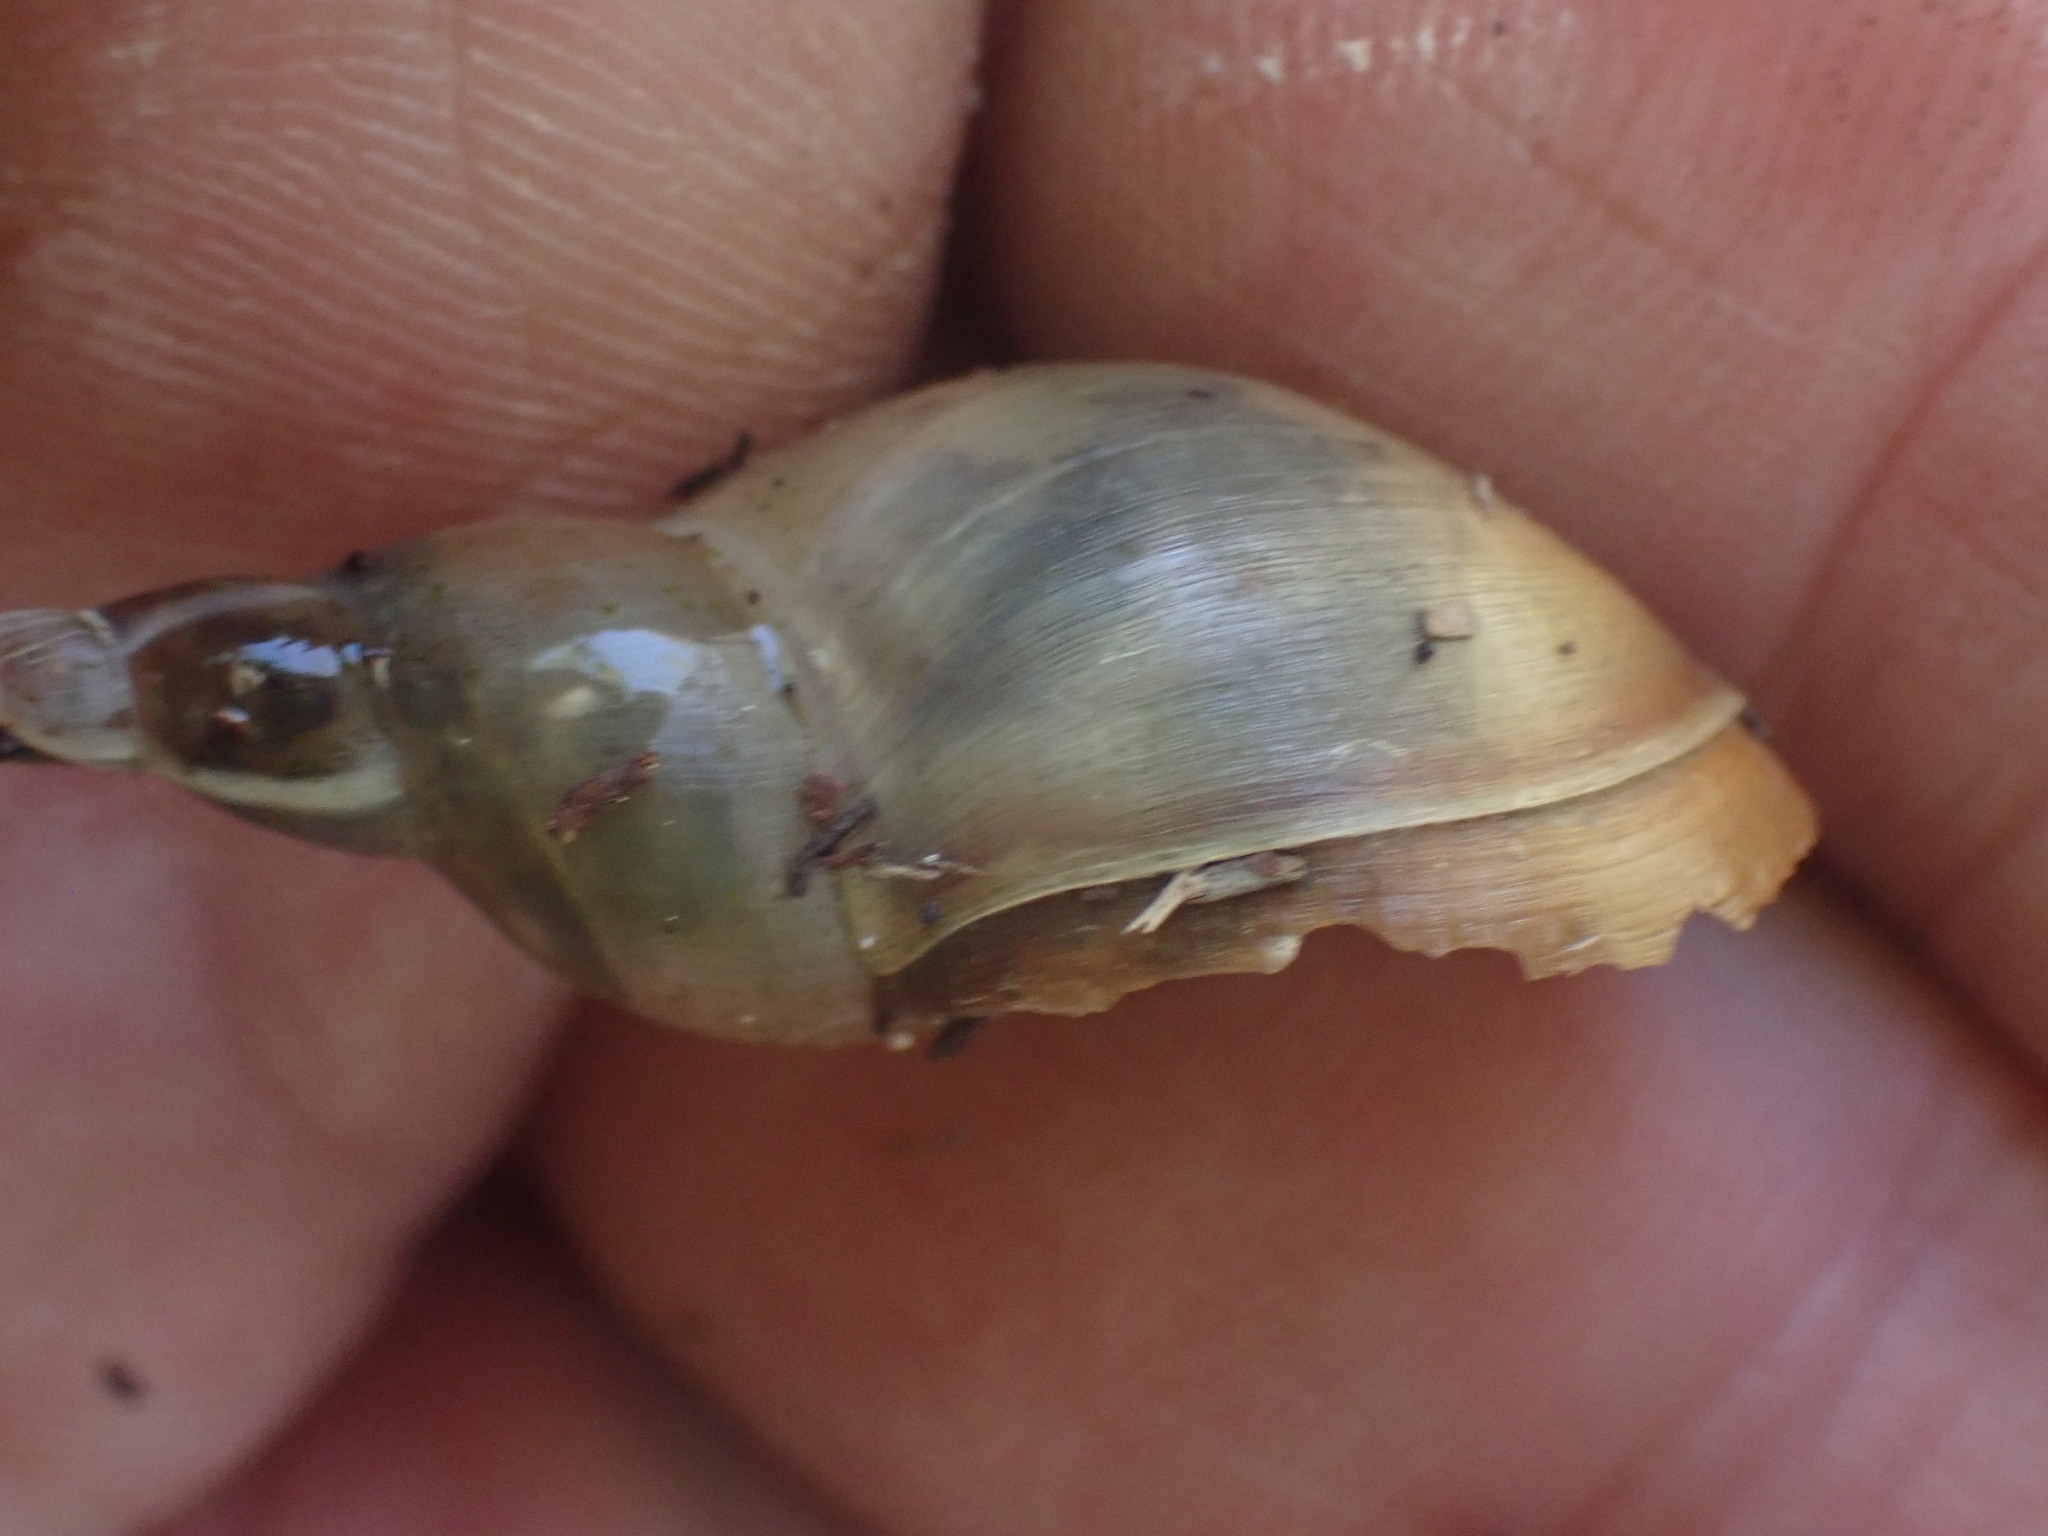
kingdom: Animalia
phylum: Mollusca
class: Gastropoda
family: Lymnaeidae
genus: Lymnaea
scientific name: Lymnaea stagnalis
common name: Great pond snail
